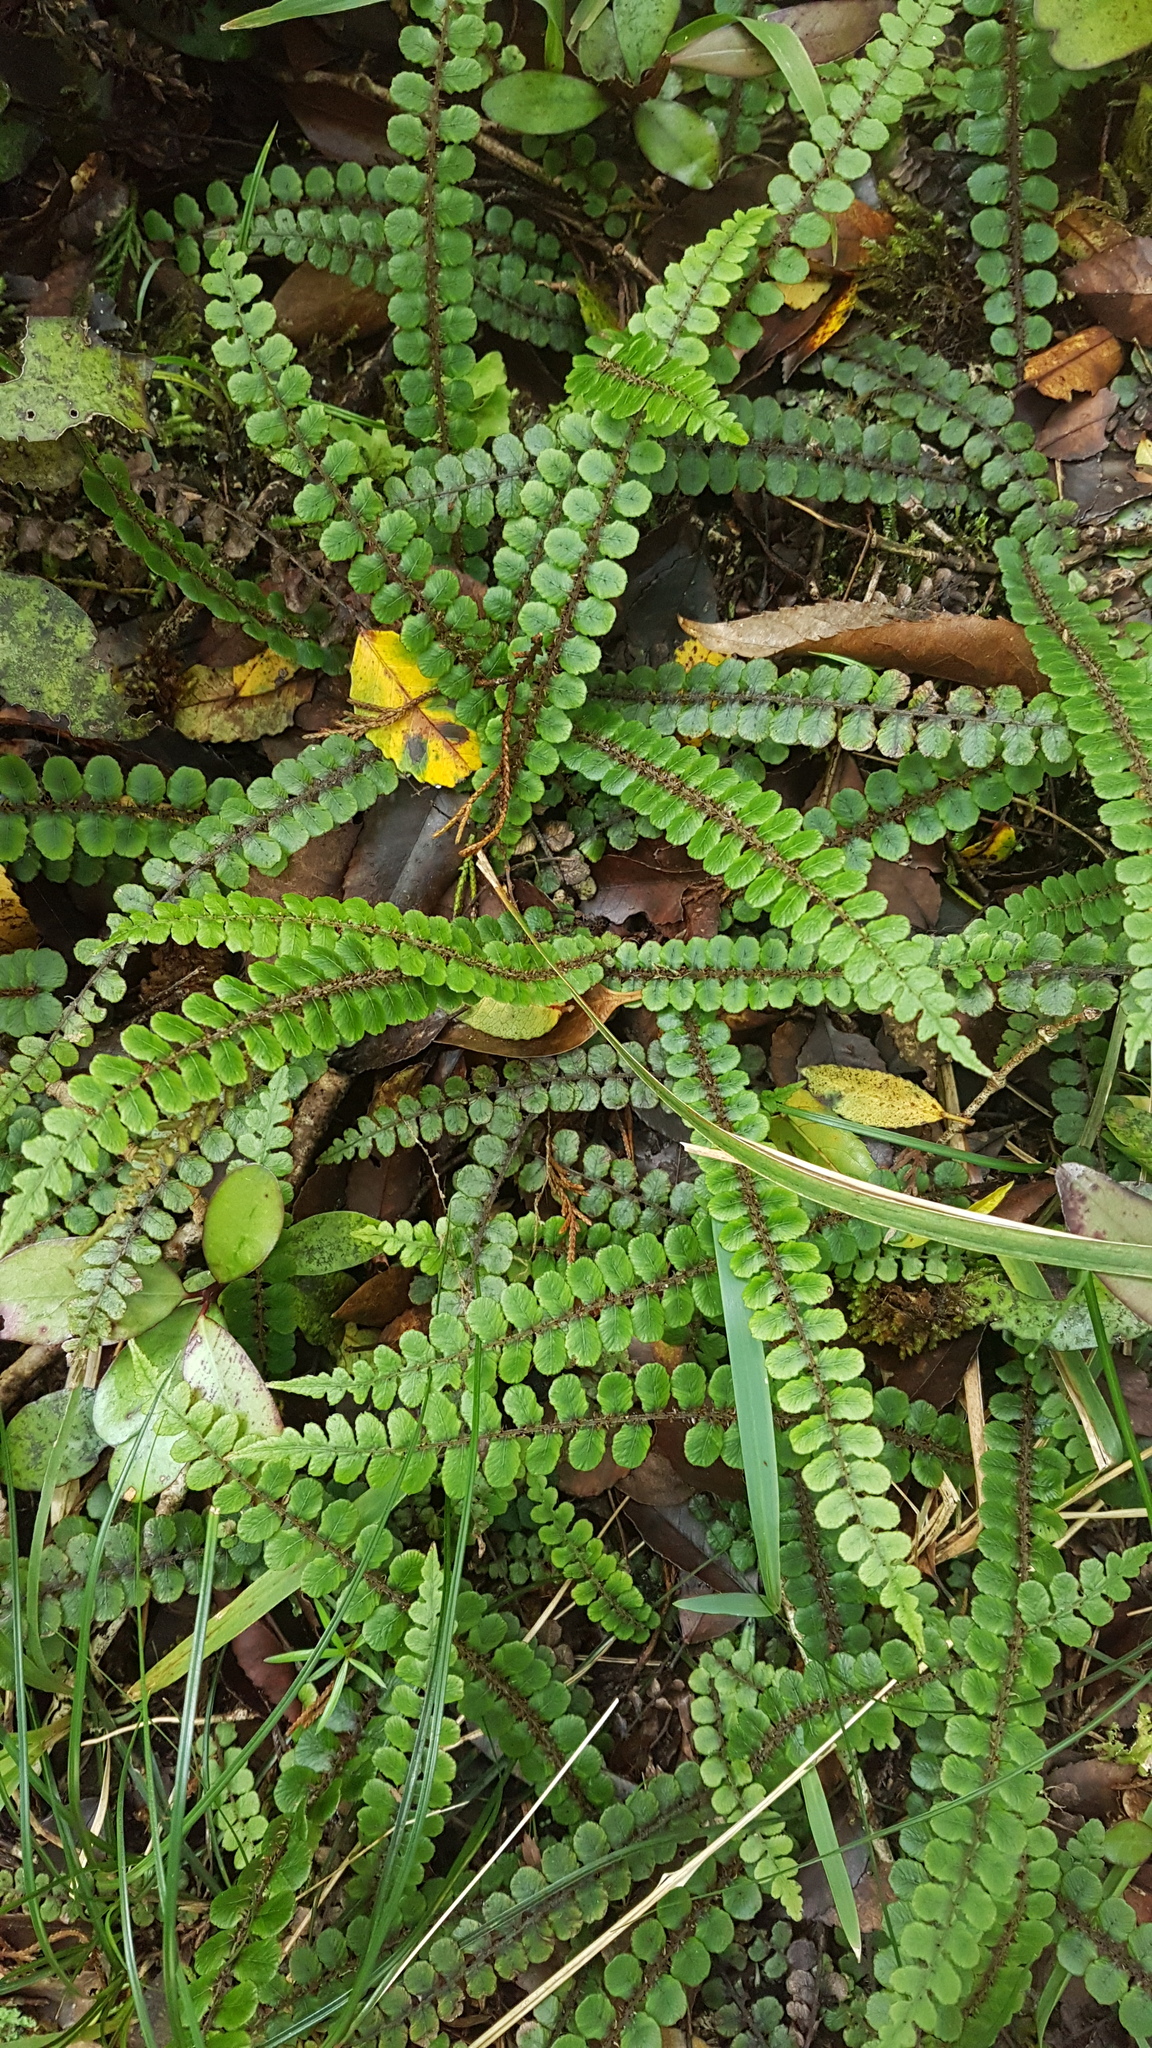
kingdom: Plantae
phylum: Tracheophyta
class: Polypodiopsida
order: Polypodiales
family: Blechnaceae
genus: Cranfillia
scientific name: Cranfillia fluviatilis
